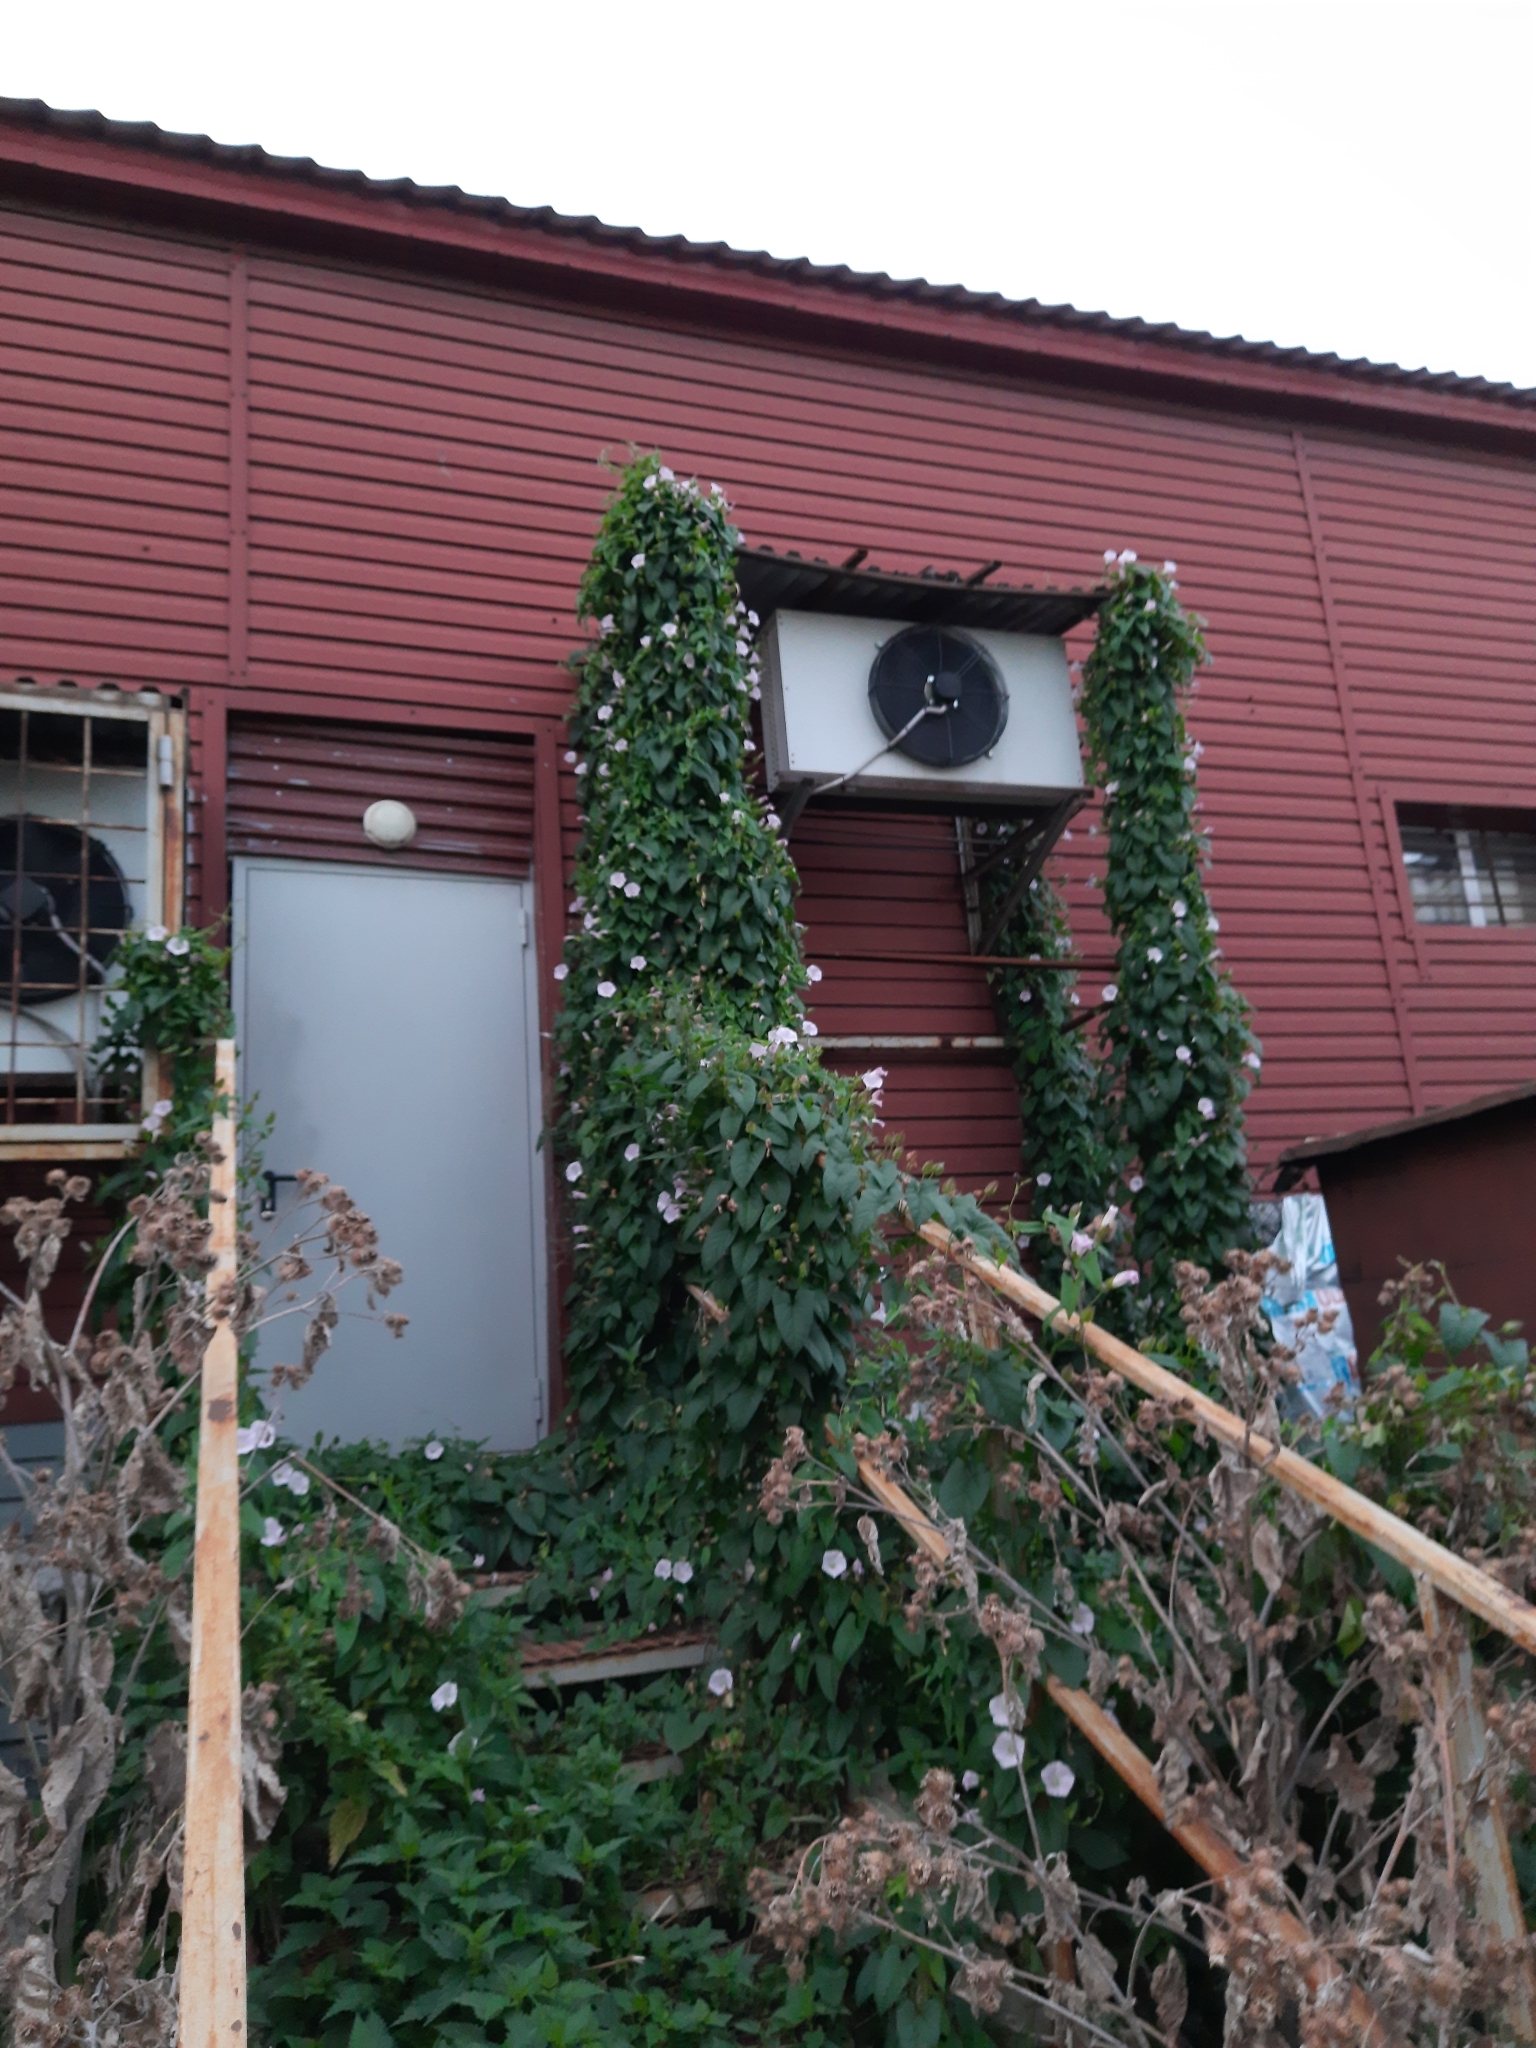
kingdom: Plantae
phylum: Tracheophyta
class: Magnoliopsida
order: Solanales
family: Convolvulaceae
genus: Calystegia
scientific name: Calystegia sepium
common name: Hedge bindweed
